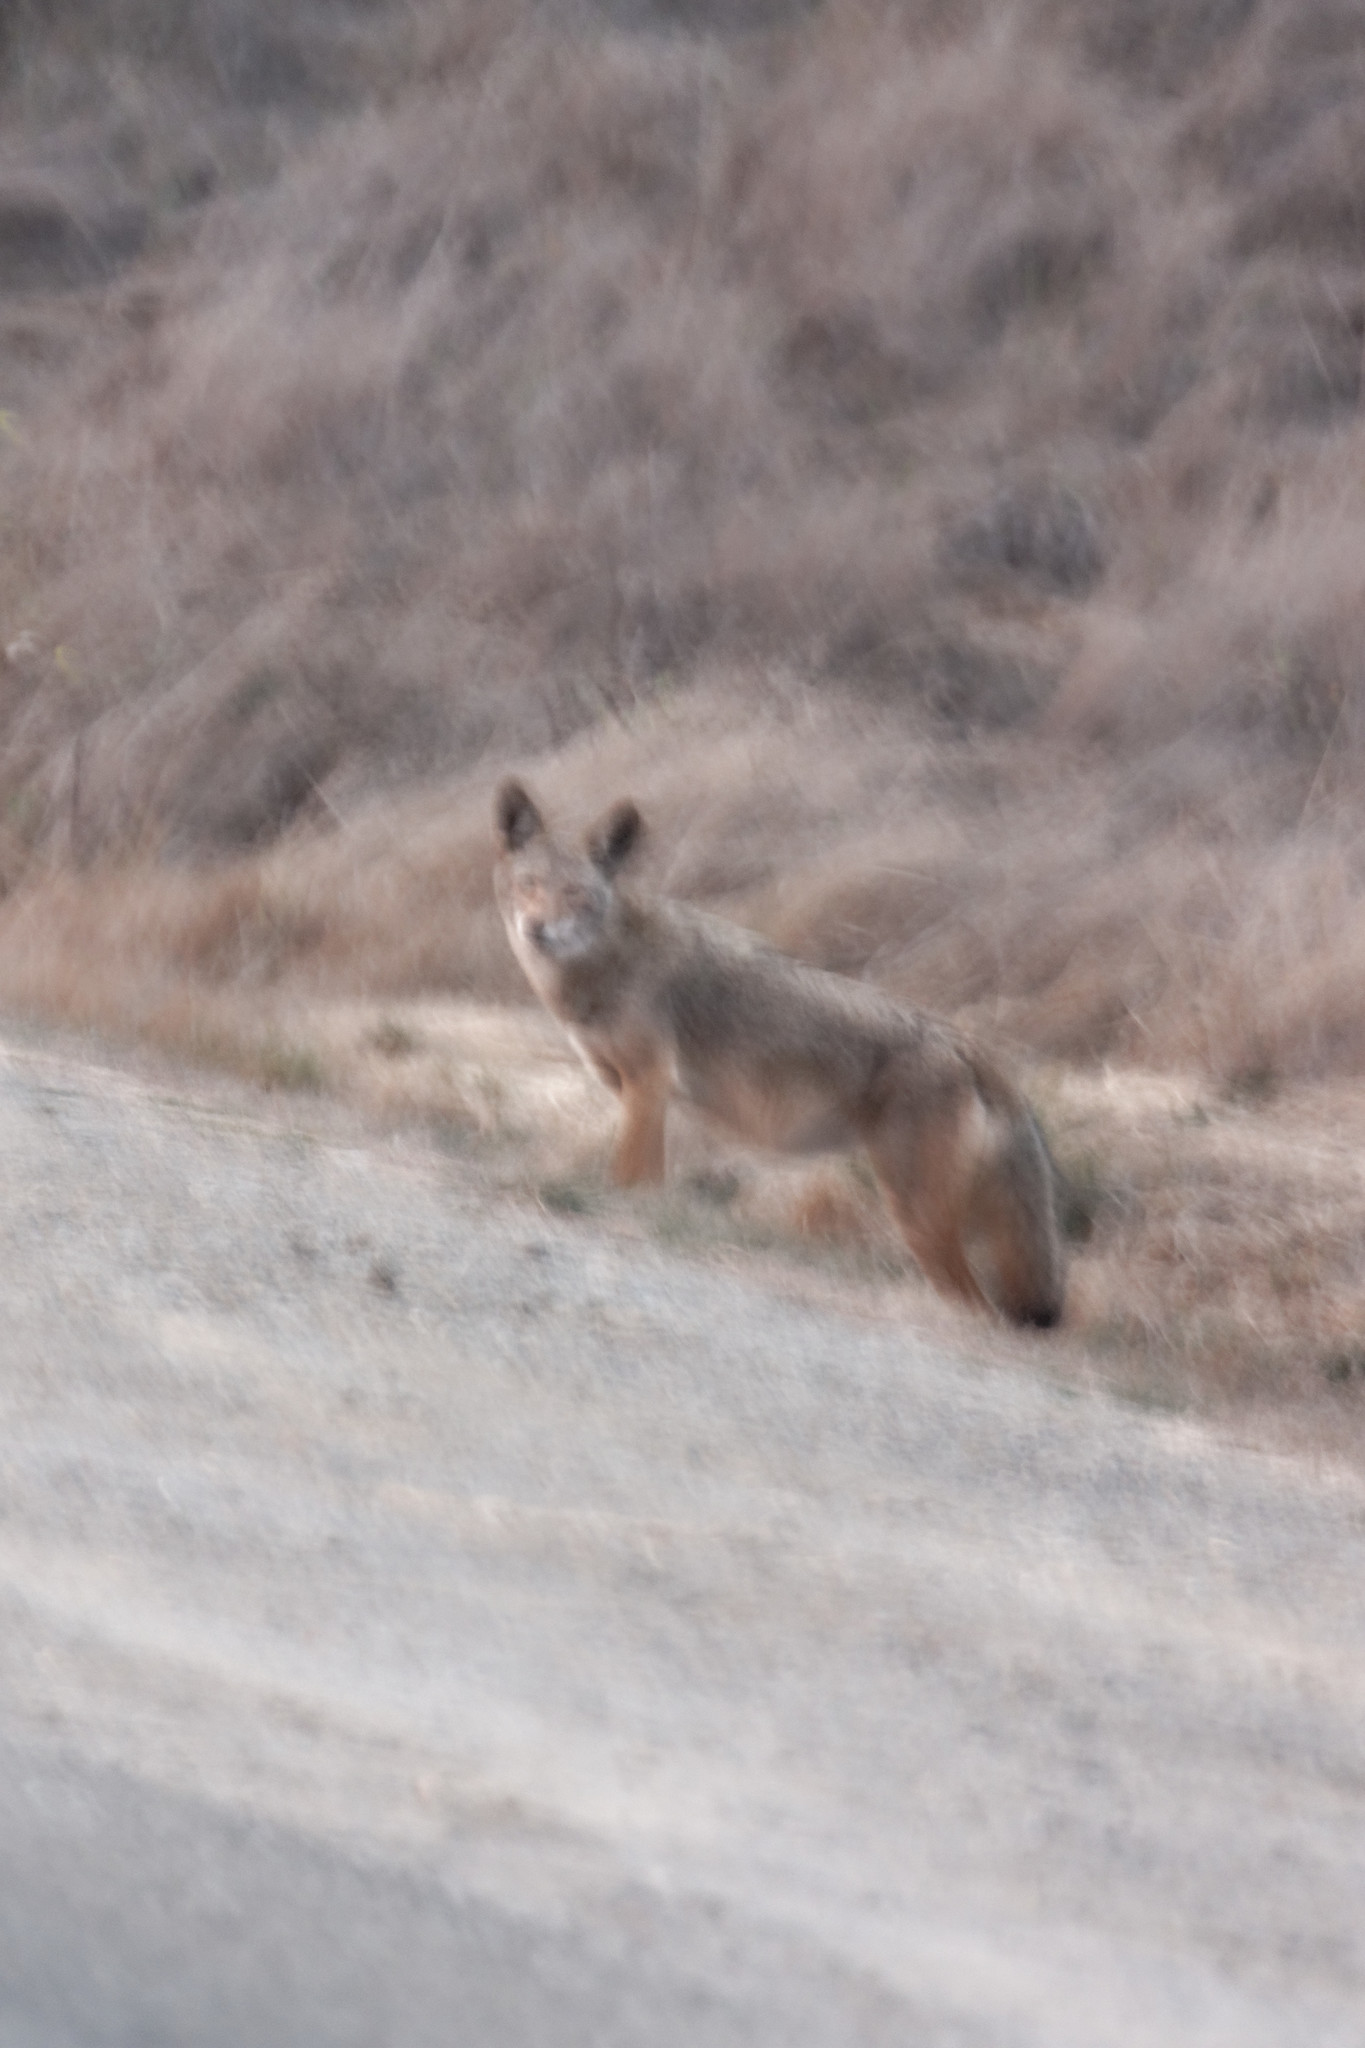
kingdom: Animalia
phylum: Chordata
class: Mammalia
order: Carnivora
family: Canidae
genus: Canis
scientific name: Canis latrans
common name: Coyote
